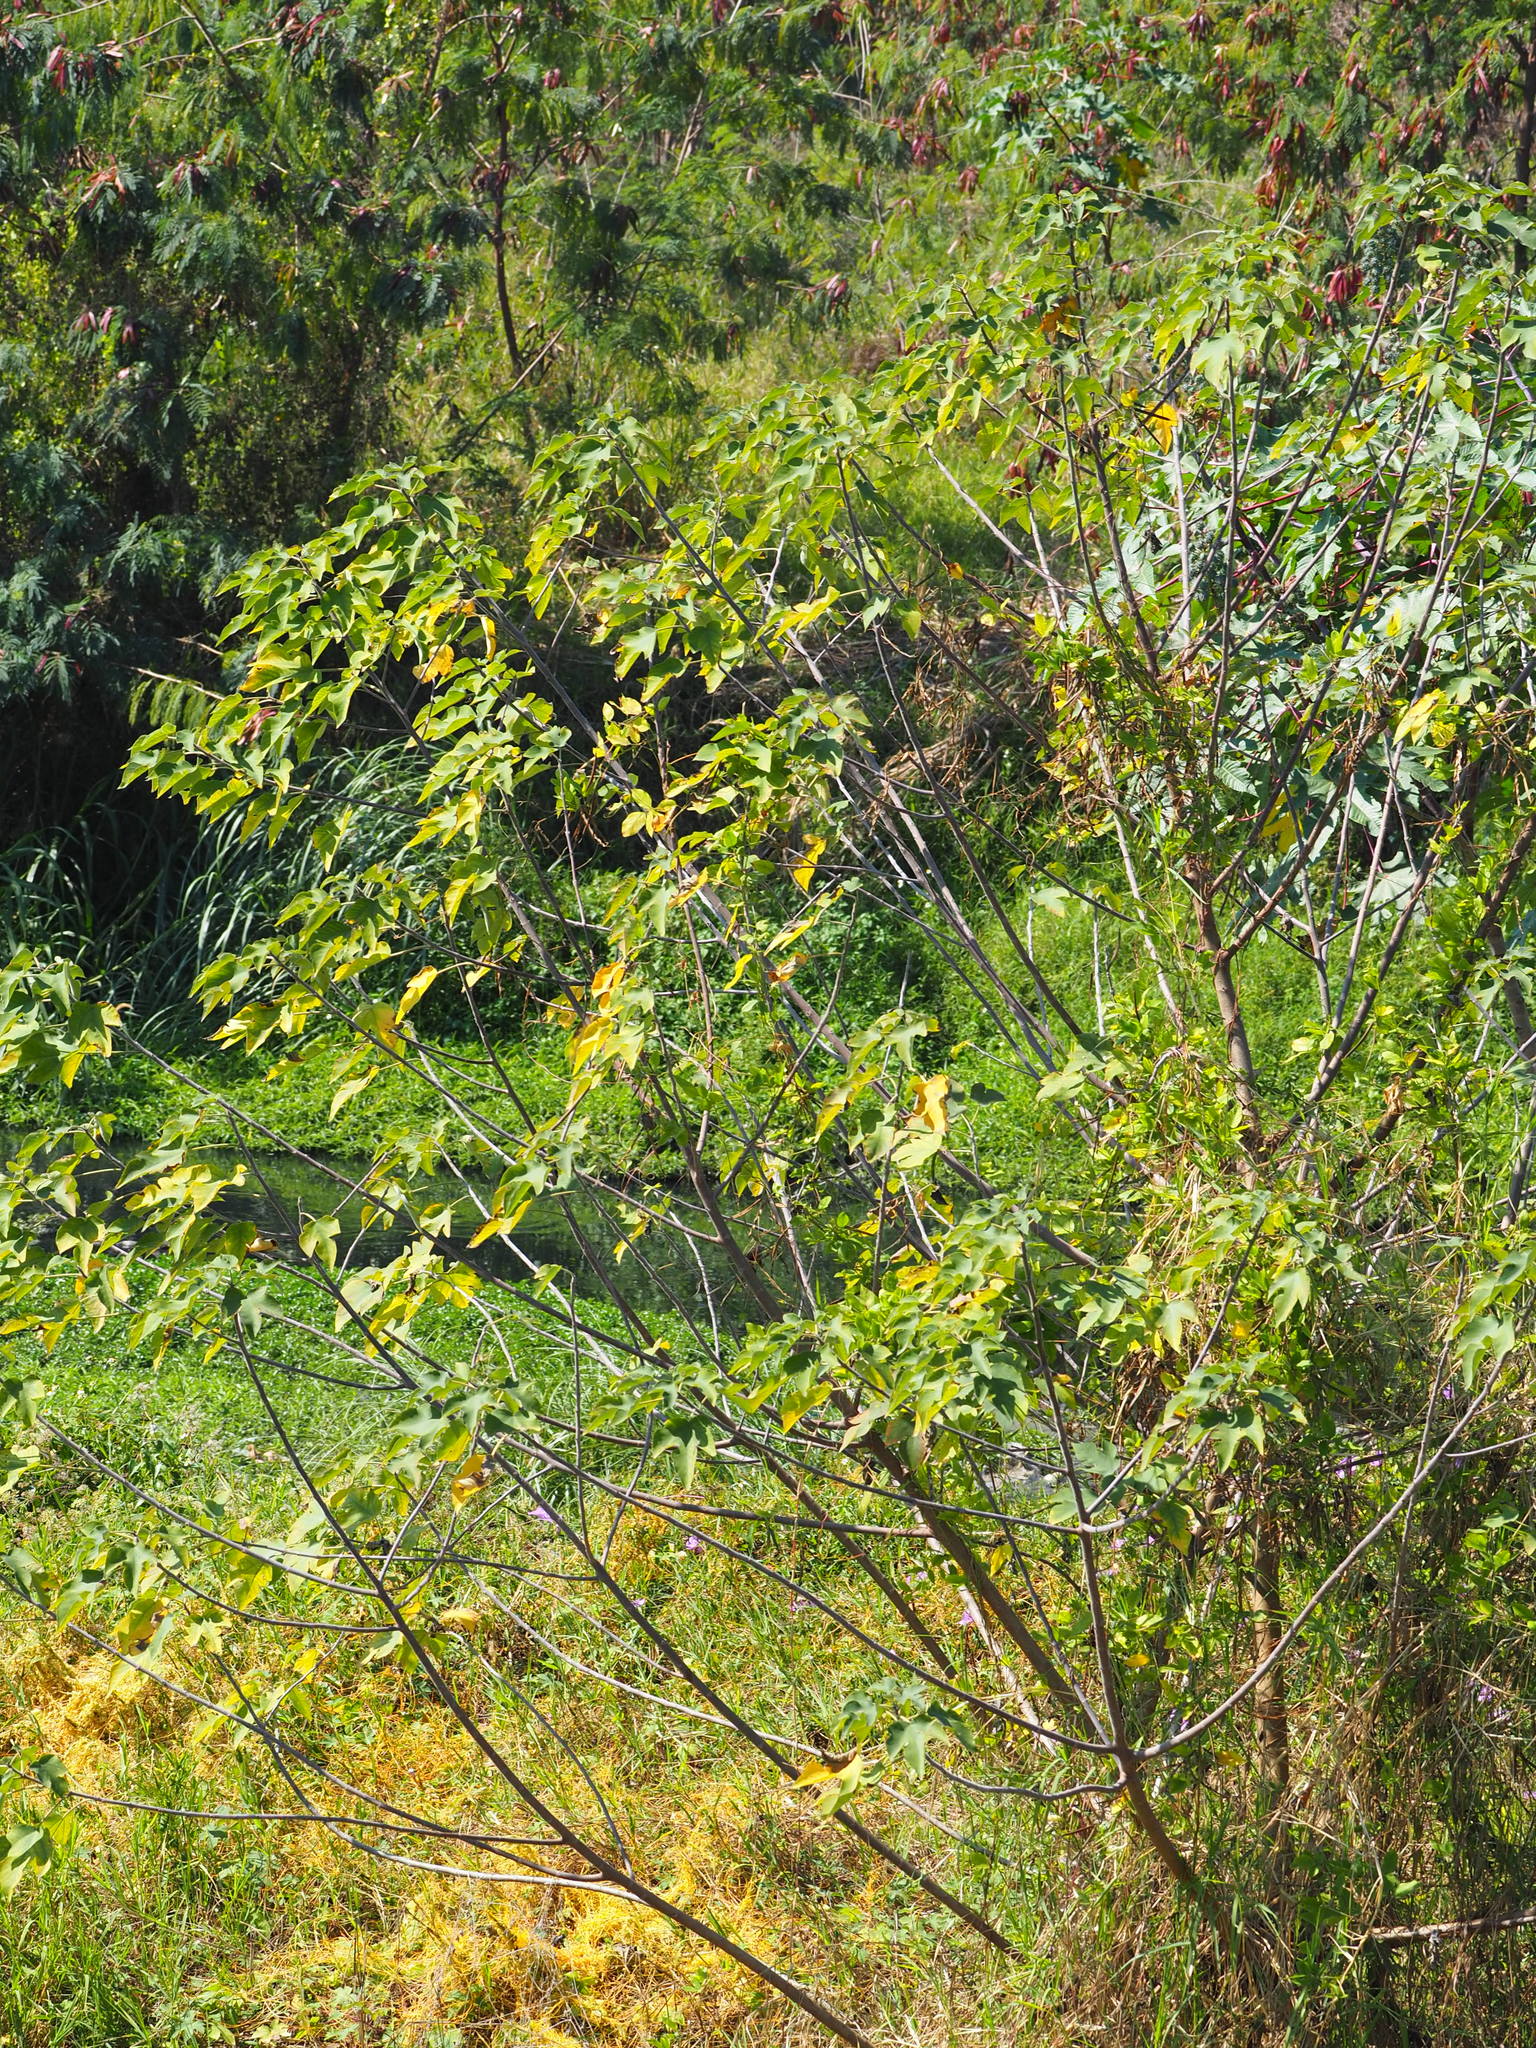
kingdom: Plantae
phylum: Tracheophyta
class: Magnoliopsida
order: Rosales
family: Moraceae
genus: Broussonetia
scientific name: Broussonetia papyrifera
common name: Paper mulberry
